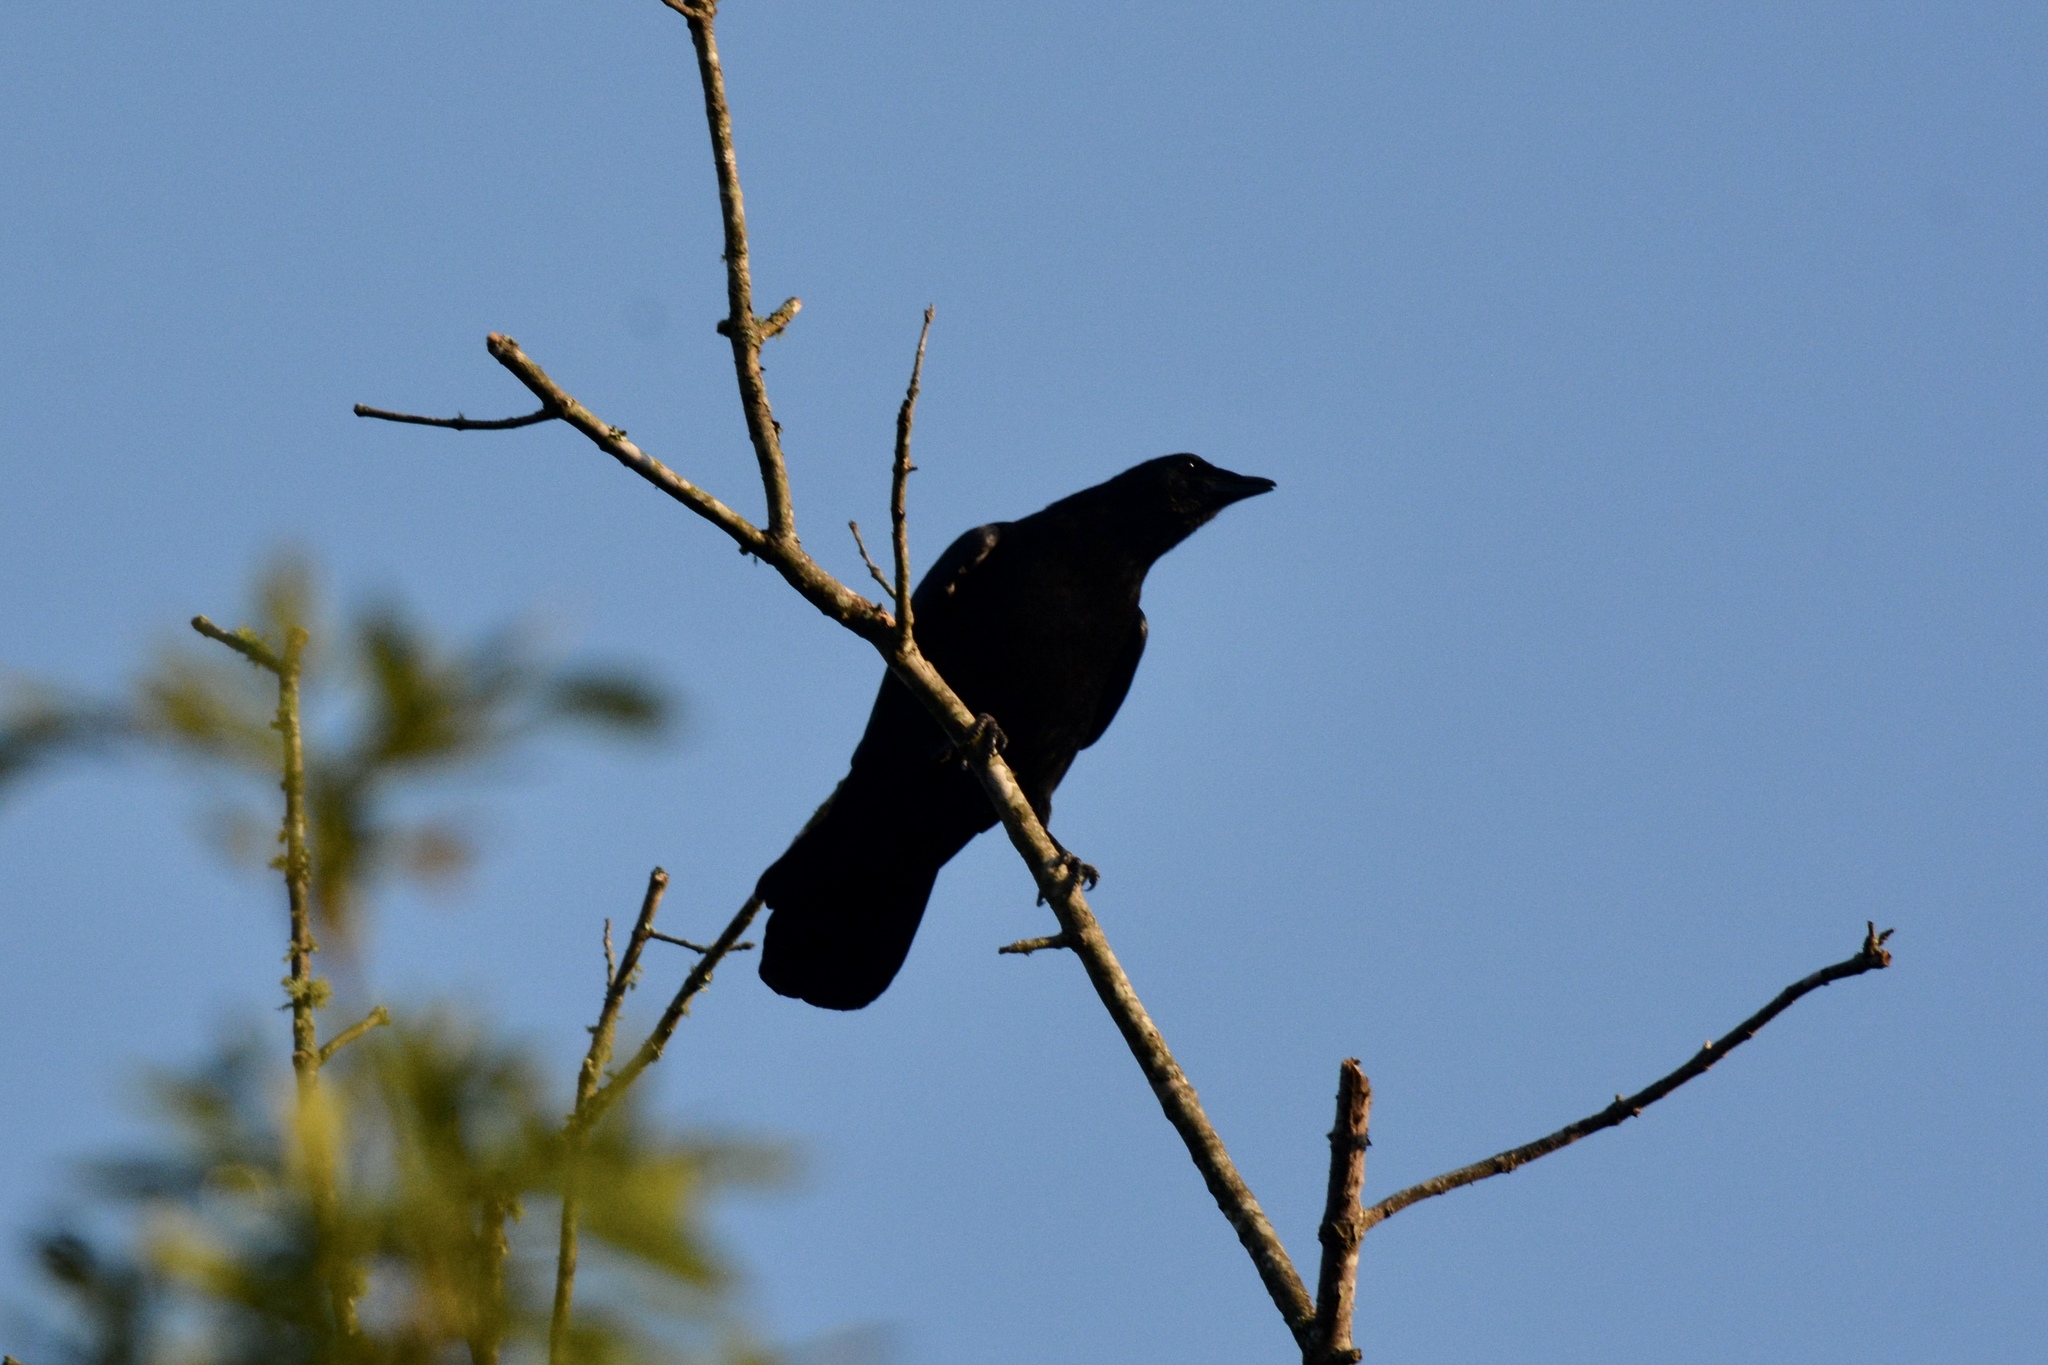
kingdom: Animalia
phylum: Chordata
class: Aves
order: Passeriformes
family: Corvidae
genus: Corvus
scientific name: Corvus brachyrhynchos
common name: American crow
